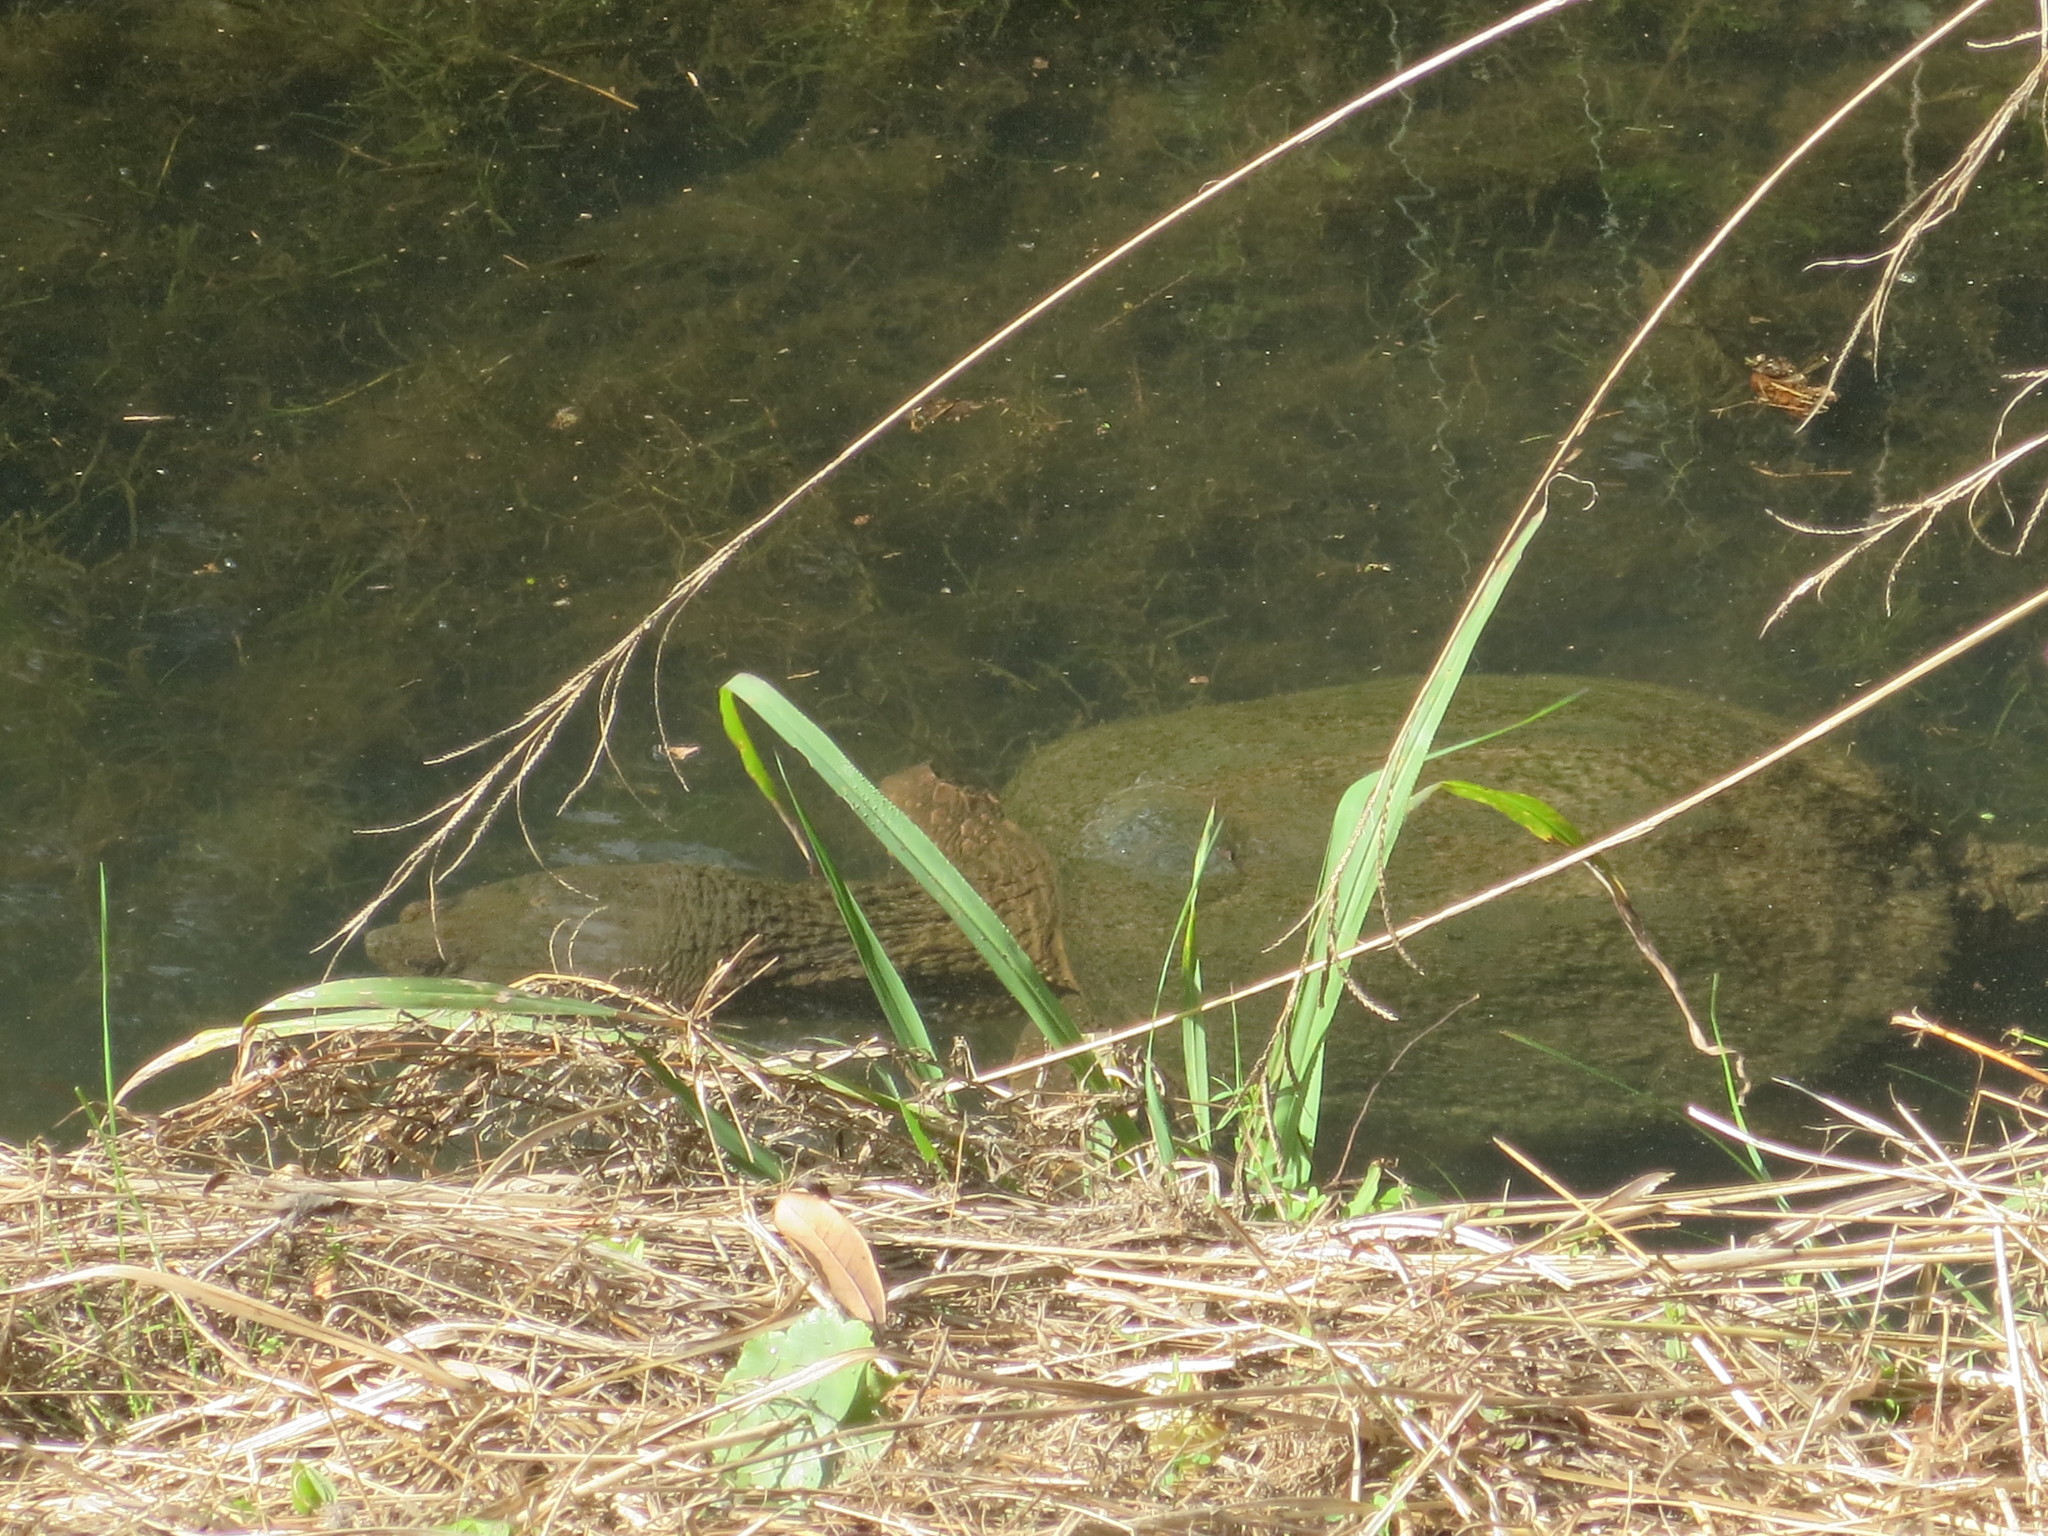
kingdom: Animalia
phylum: Chordata
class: Testudines
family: Chelydridae
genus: Chelydra
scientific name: Chelydra serpentina
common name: Common snapping turtle
